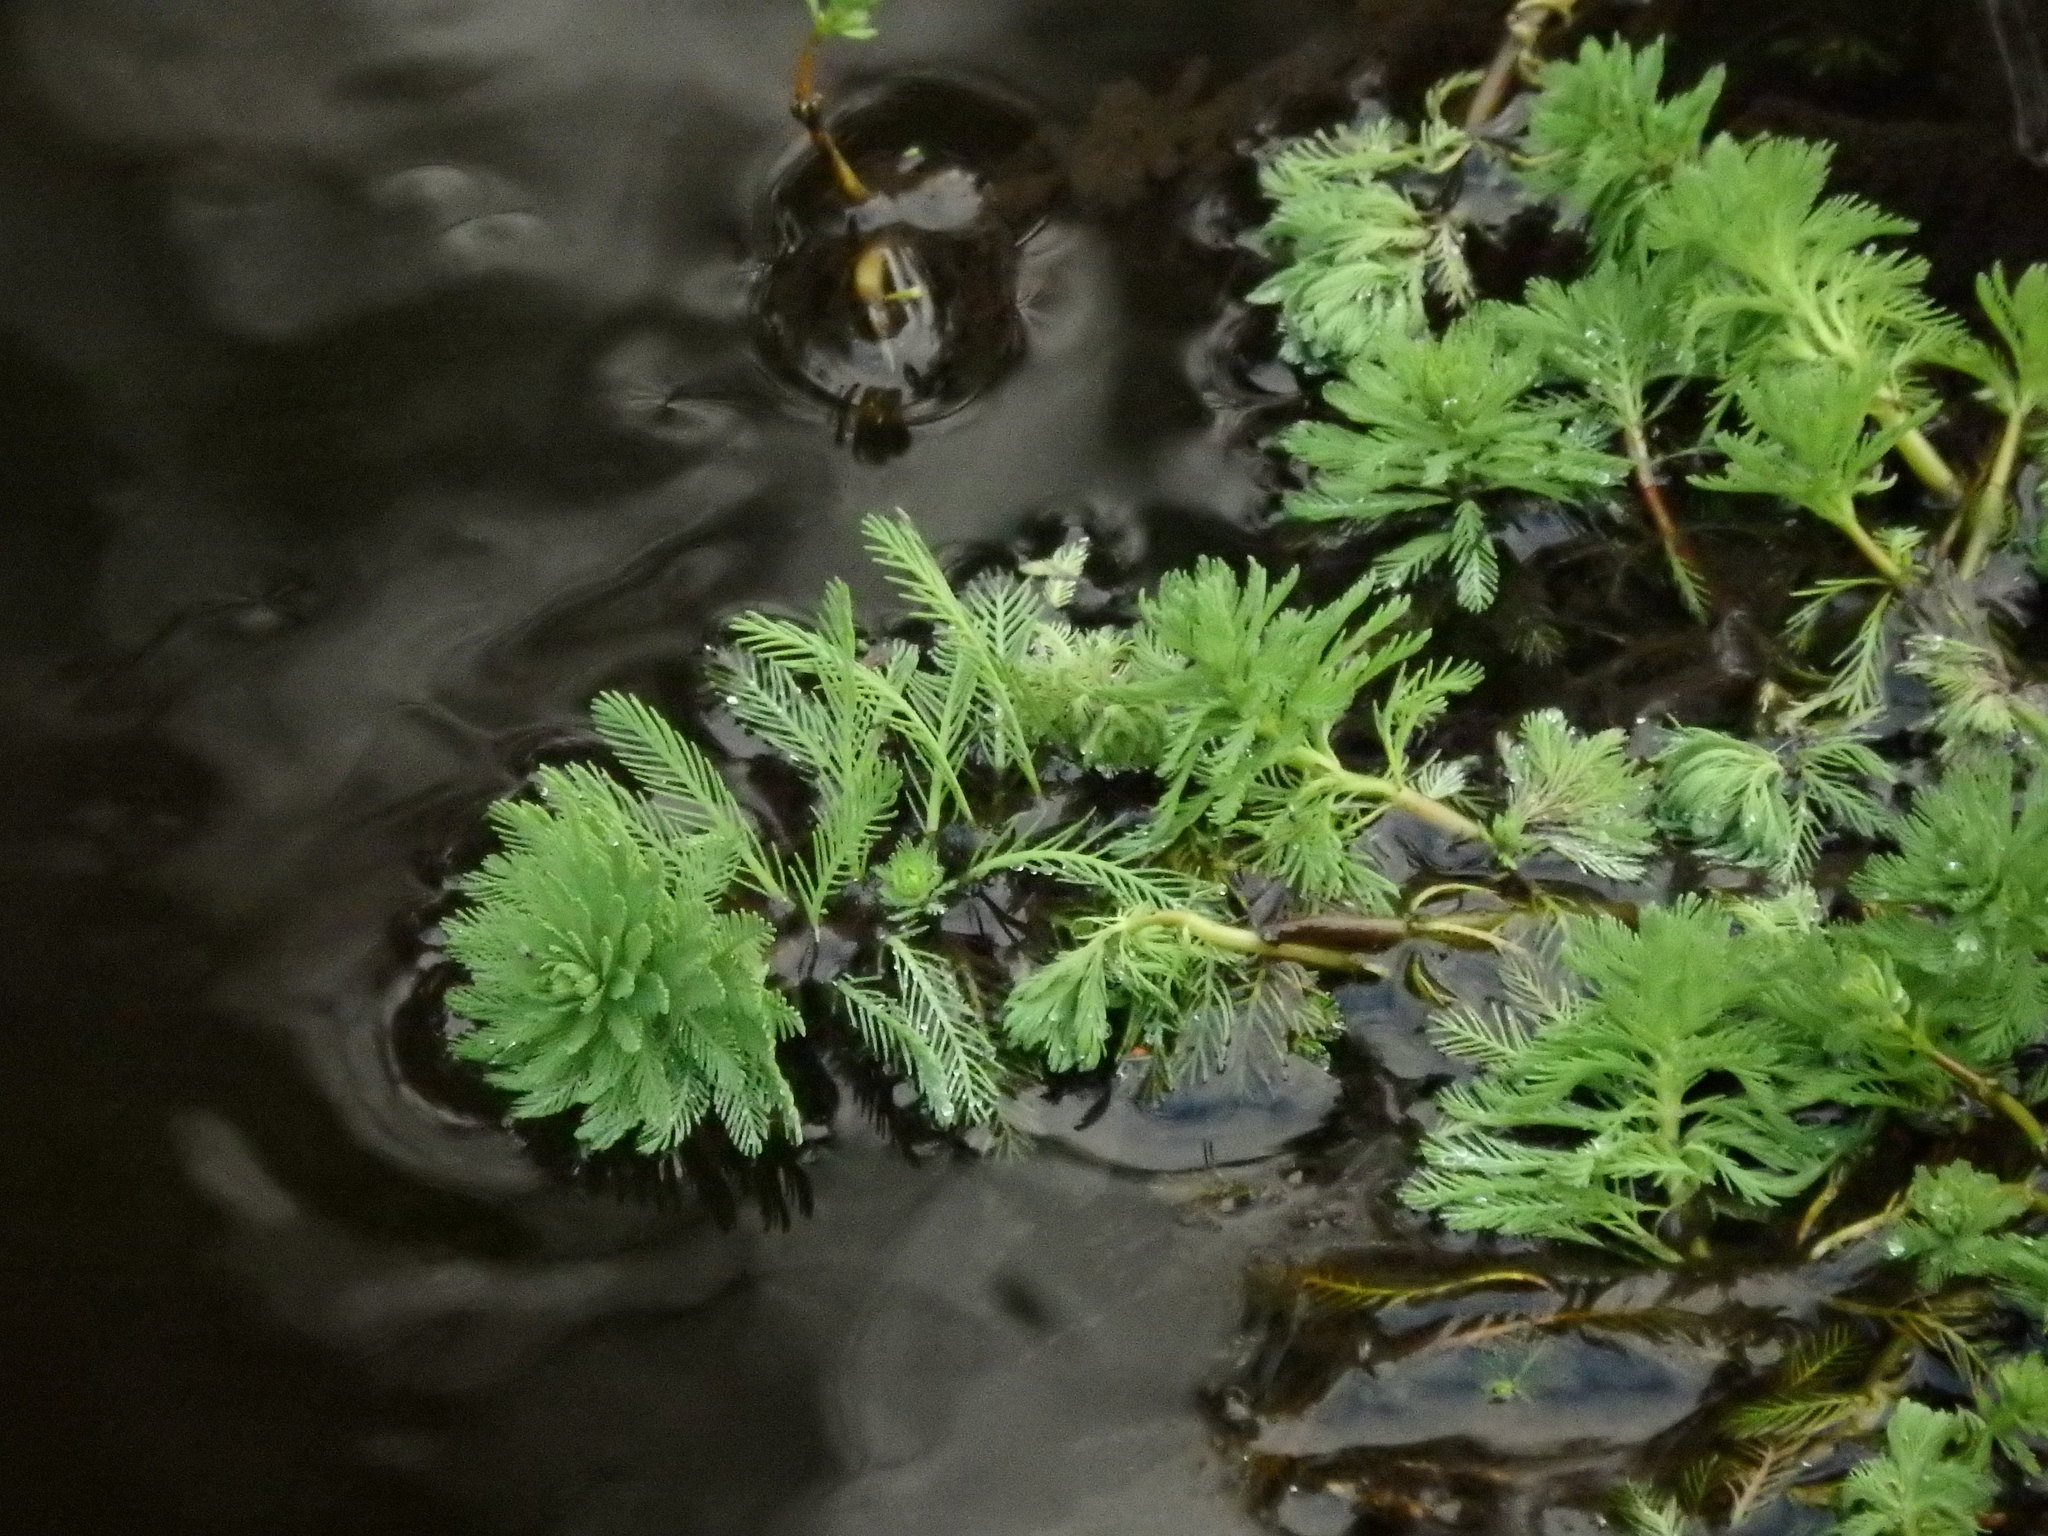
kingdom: Plantae
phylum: Tracheophyta
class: Magnoliopsida
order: Saxifragales
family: Haloragaceae
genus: Myriophyllum
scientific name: Myriophyllum aquaticum
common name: Parrot's feather
